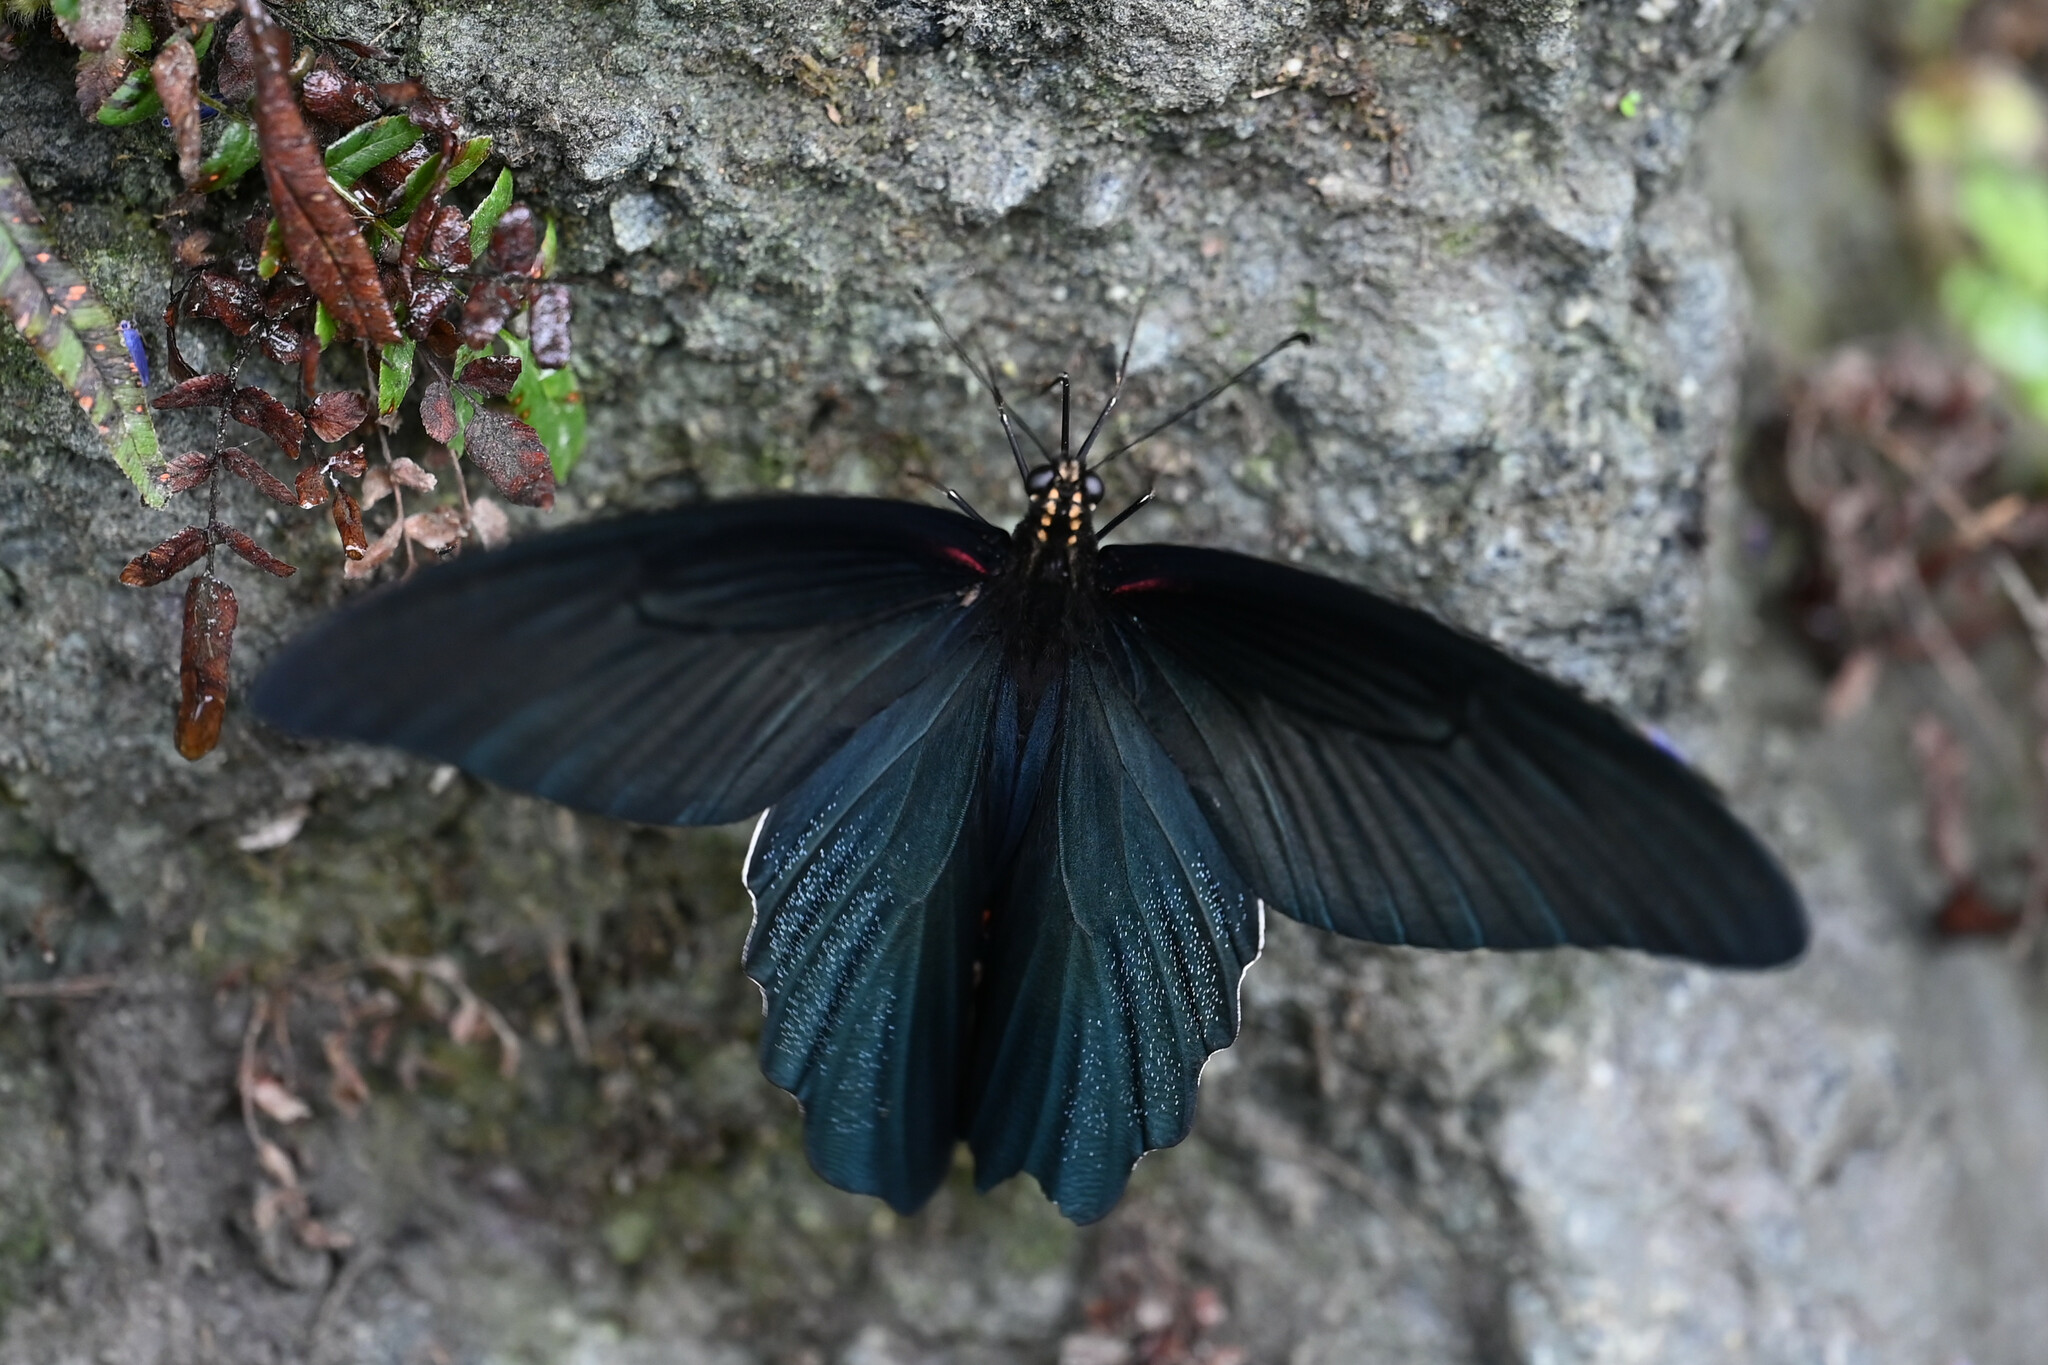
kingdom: Animalia
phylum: Arthropoda
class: Insecta
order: Lepidoptera
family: Papilionidae
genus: Papilio
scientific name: Papilio alcmenor
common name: Redbreast
